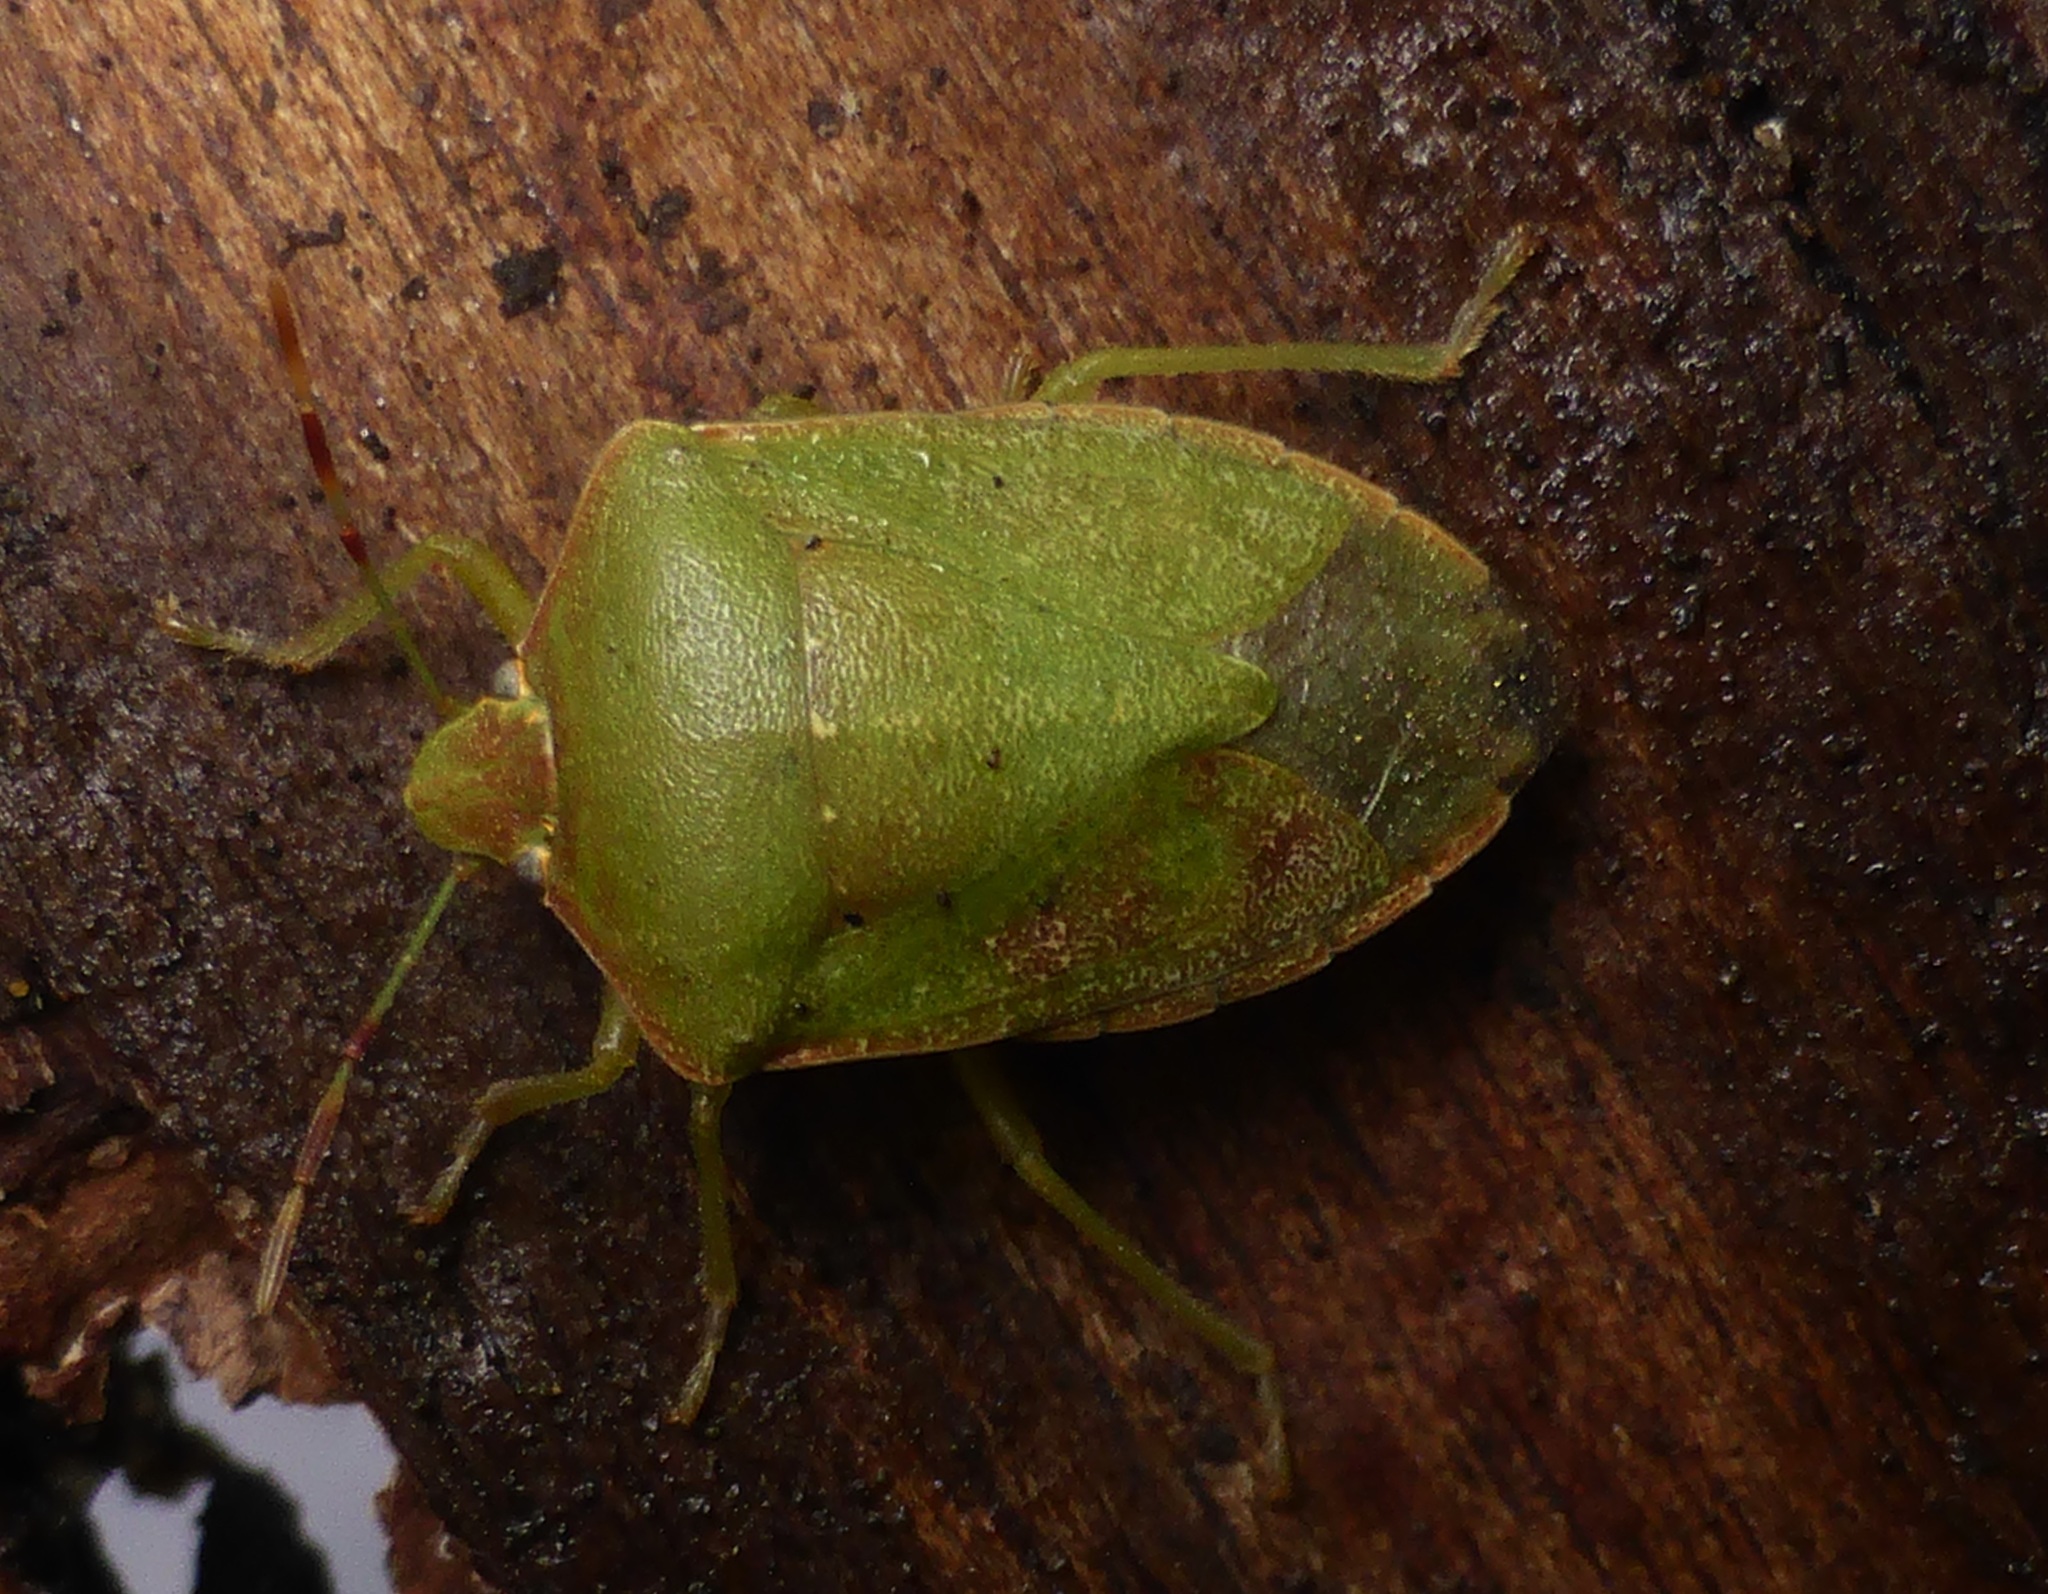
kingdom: Animalia
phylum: Arthropoda
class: Insecta
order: Hemiptera
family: Pentatomidae
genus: Nezara
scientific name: Nezara viridula
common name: Southern green stink bug
